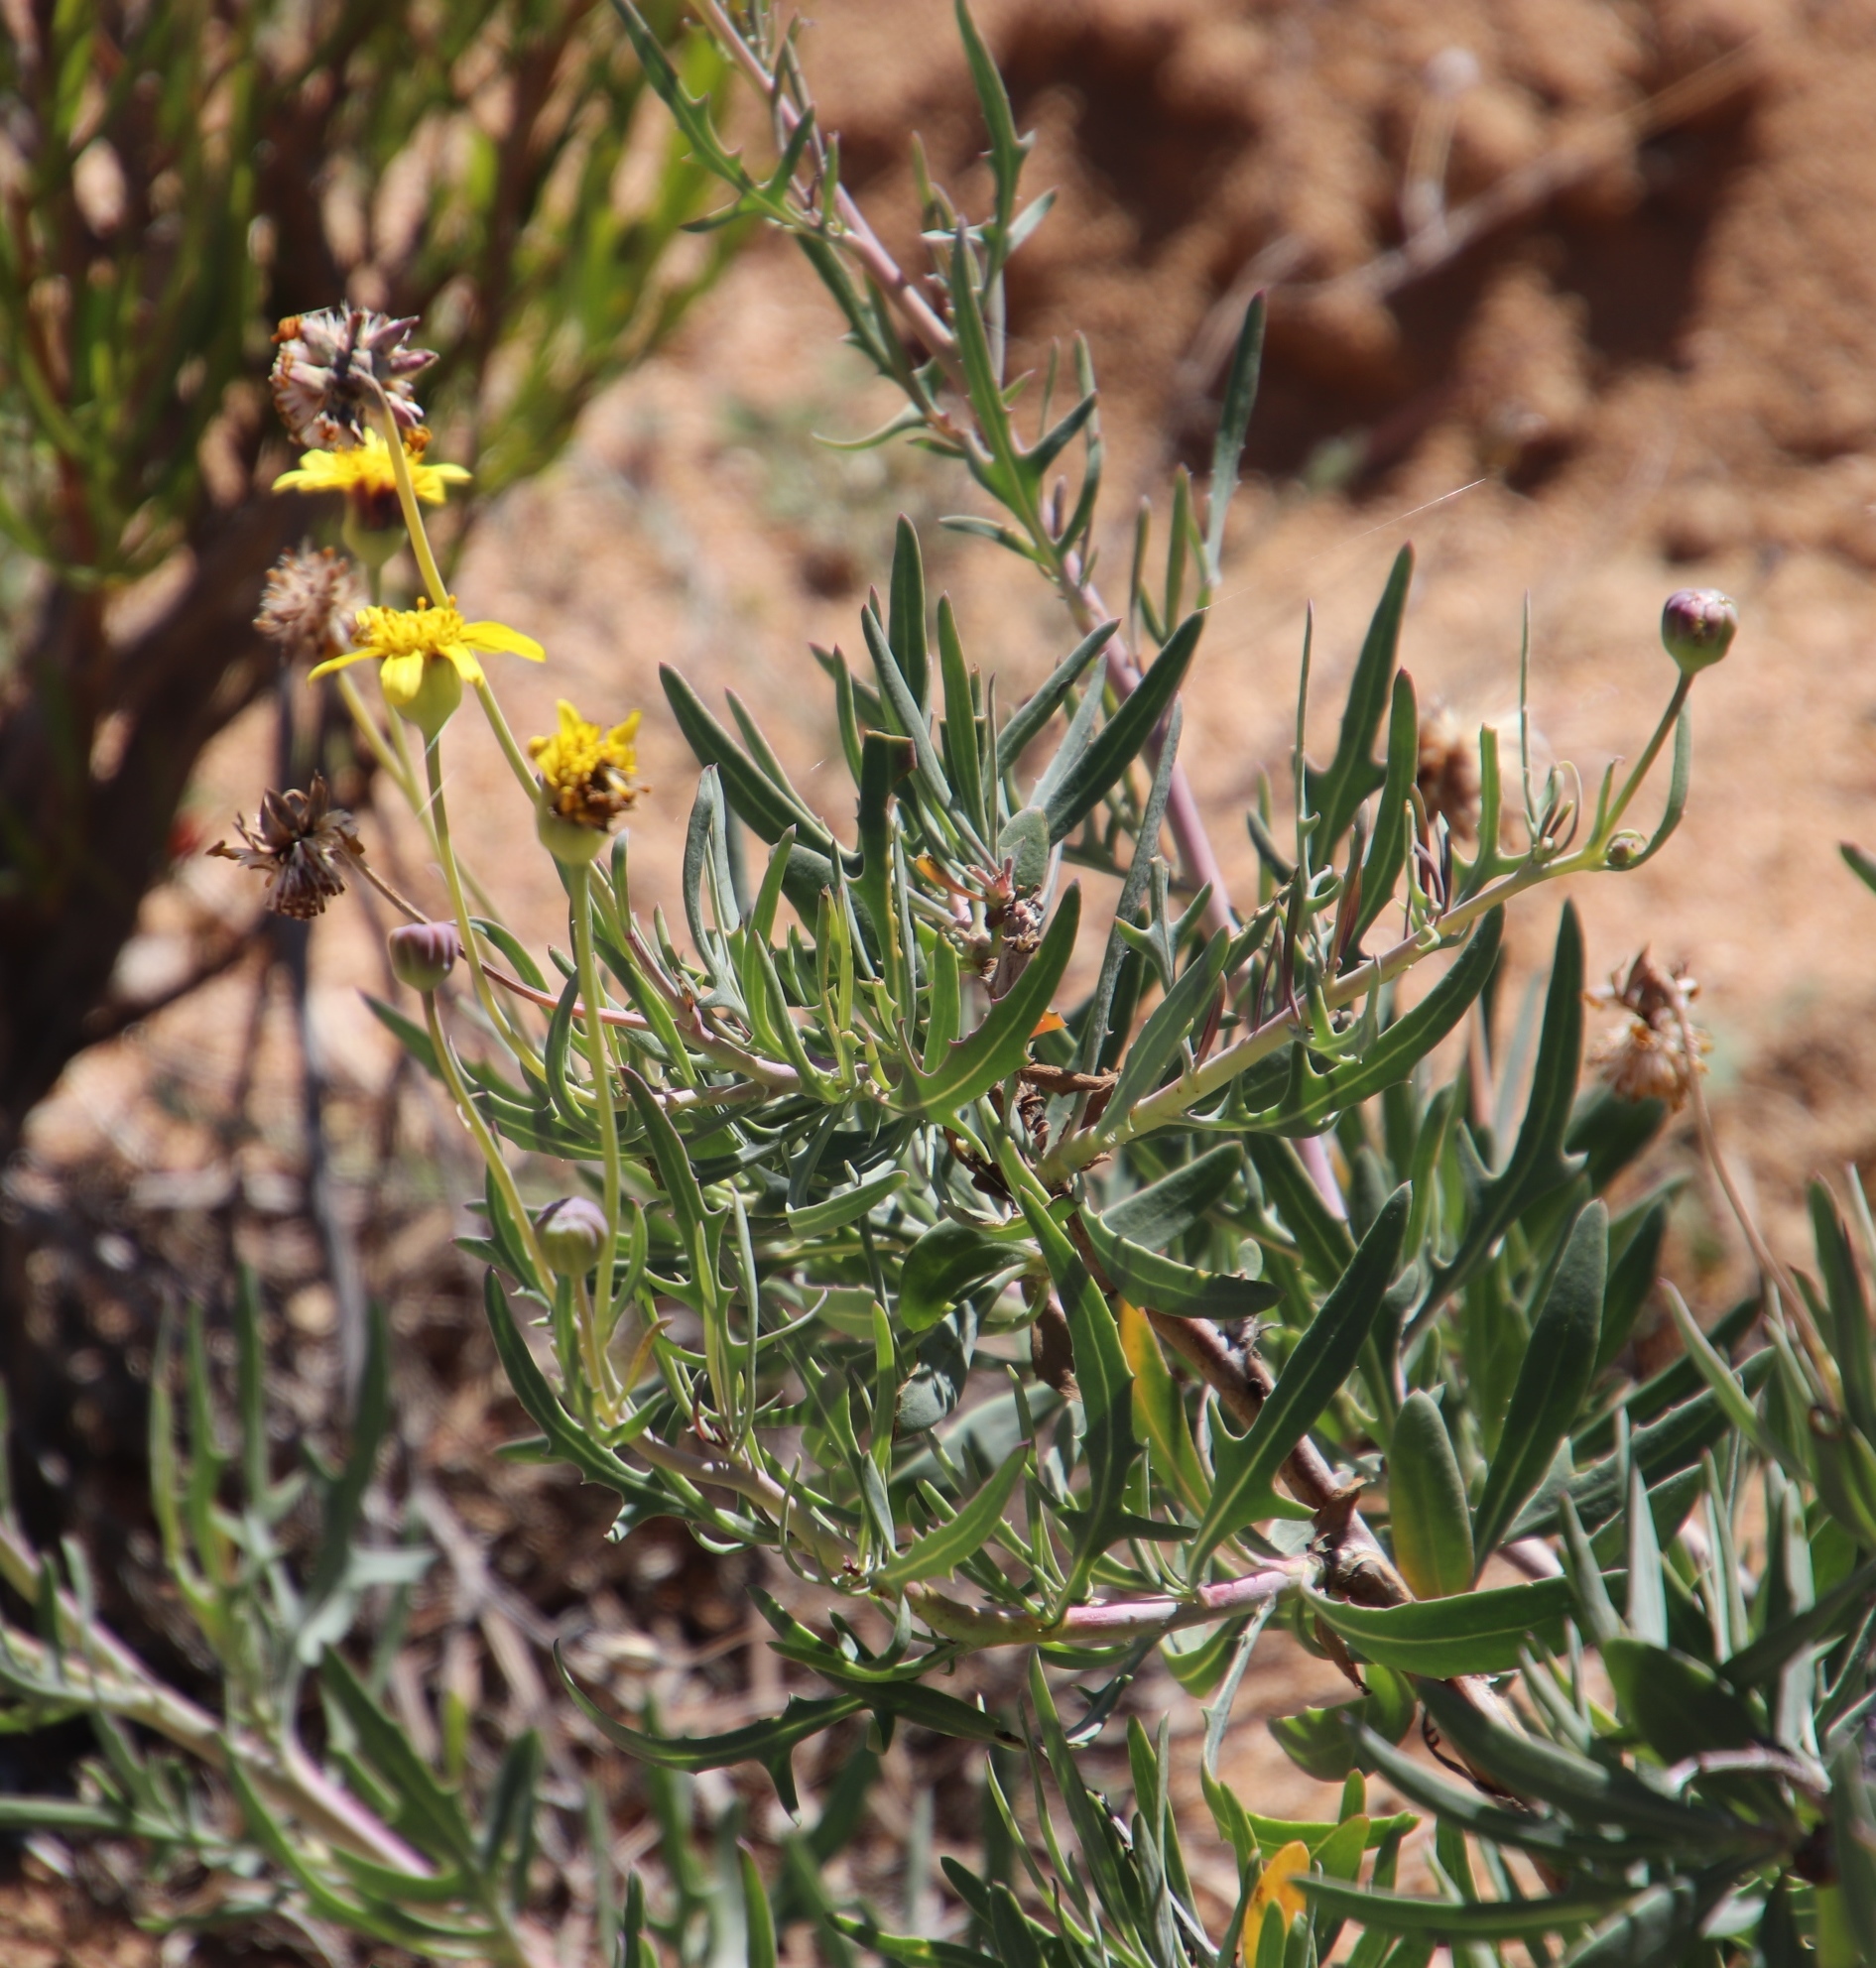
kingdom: Plantae
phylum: Tracheophyta
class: Magnoliopsida
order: Asterales
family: Asteraceae
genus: Othonna
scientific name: Othonna coronopifolia
